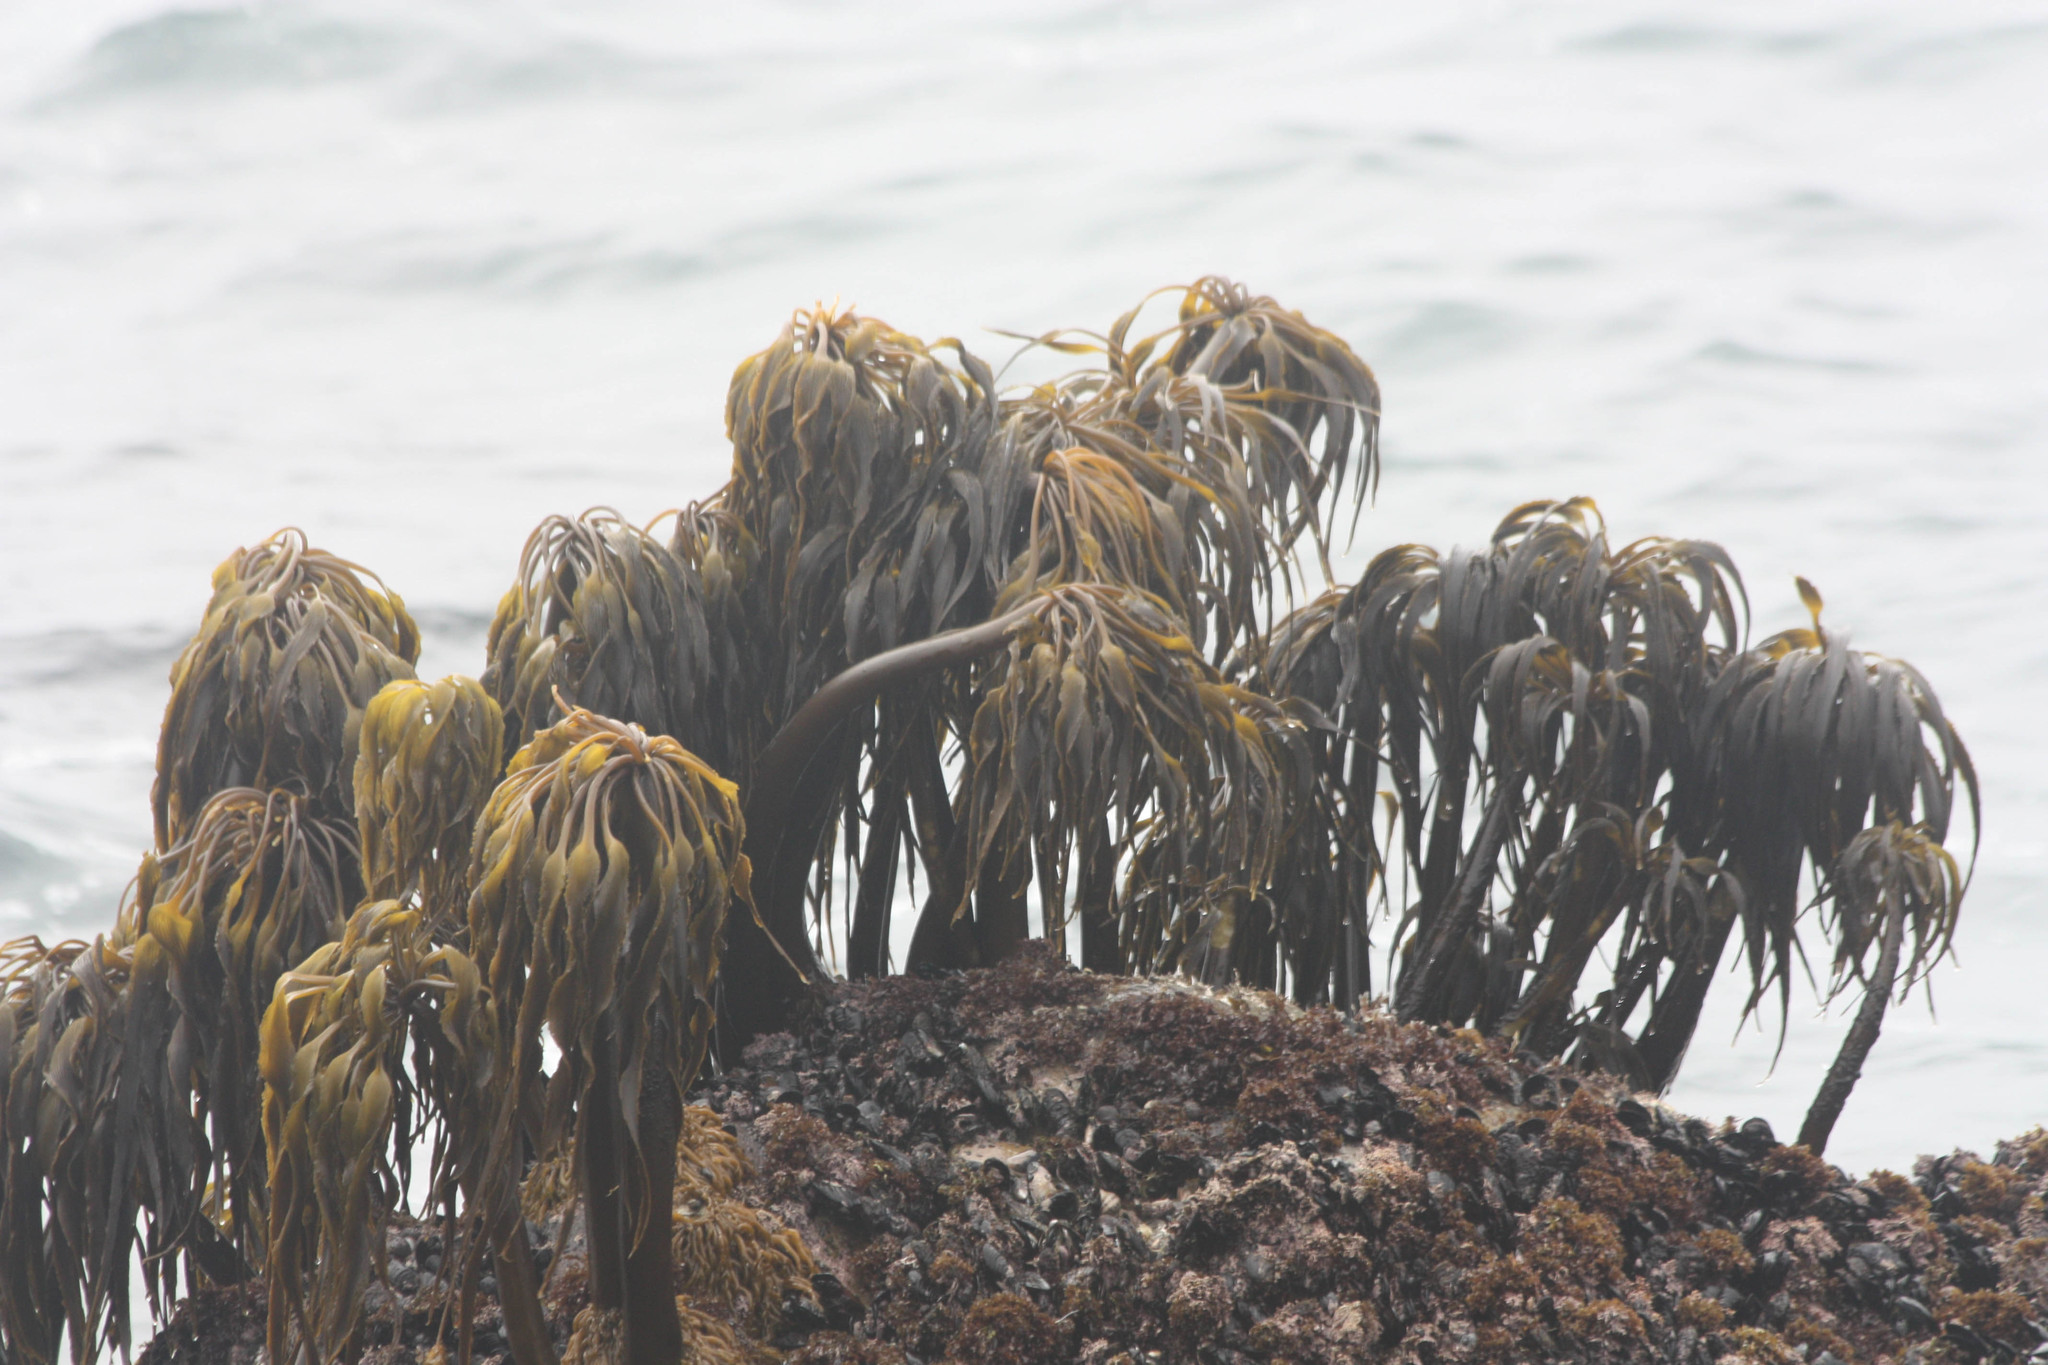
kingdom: Chromista
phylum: Ochrophyta
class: Phaeophyceae
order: Laminariales
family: Laminariaceae
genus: Postelsia
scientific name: Postelsia palmiformis
